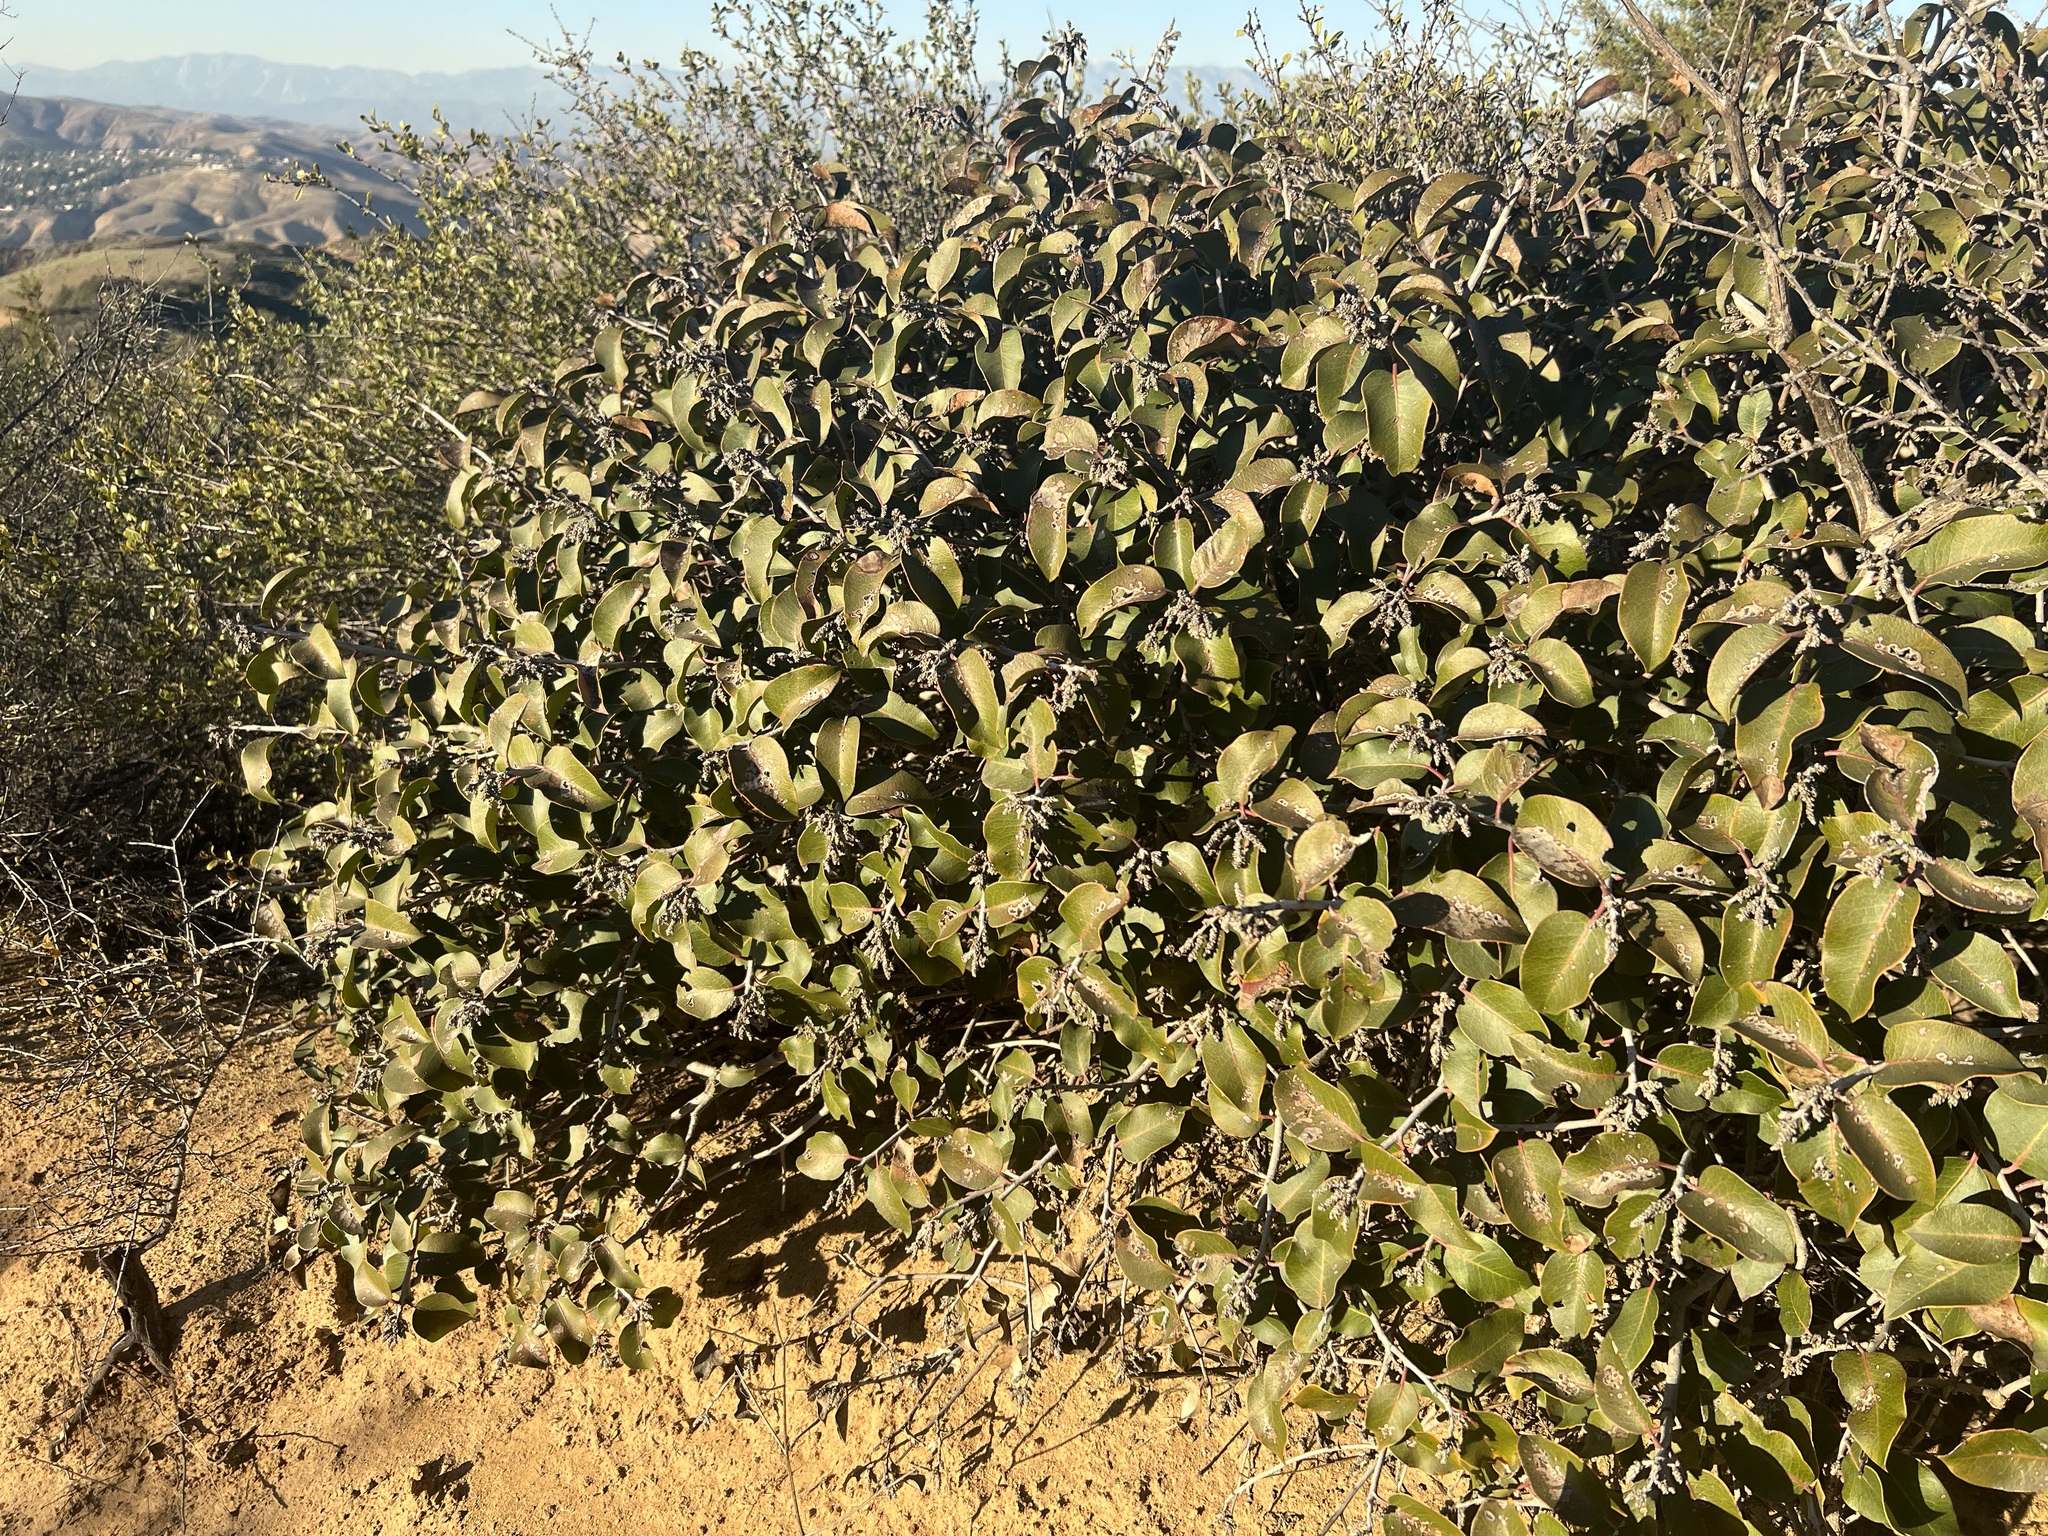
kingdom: Plantae
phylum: Tracheophyta
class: Magnoliopsida
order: Sapindales
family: Anacardiaceae
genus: Rhus
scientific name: Rhus ovata
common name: Sugar sumac
